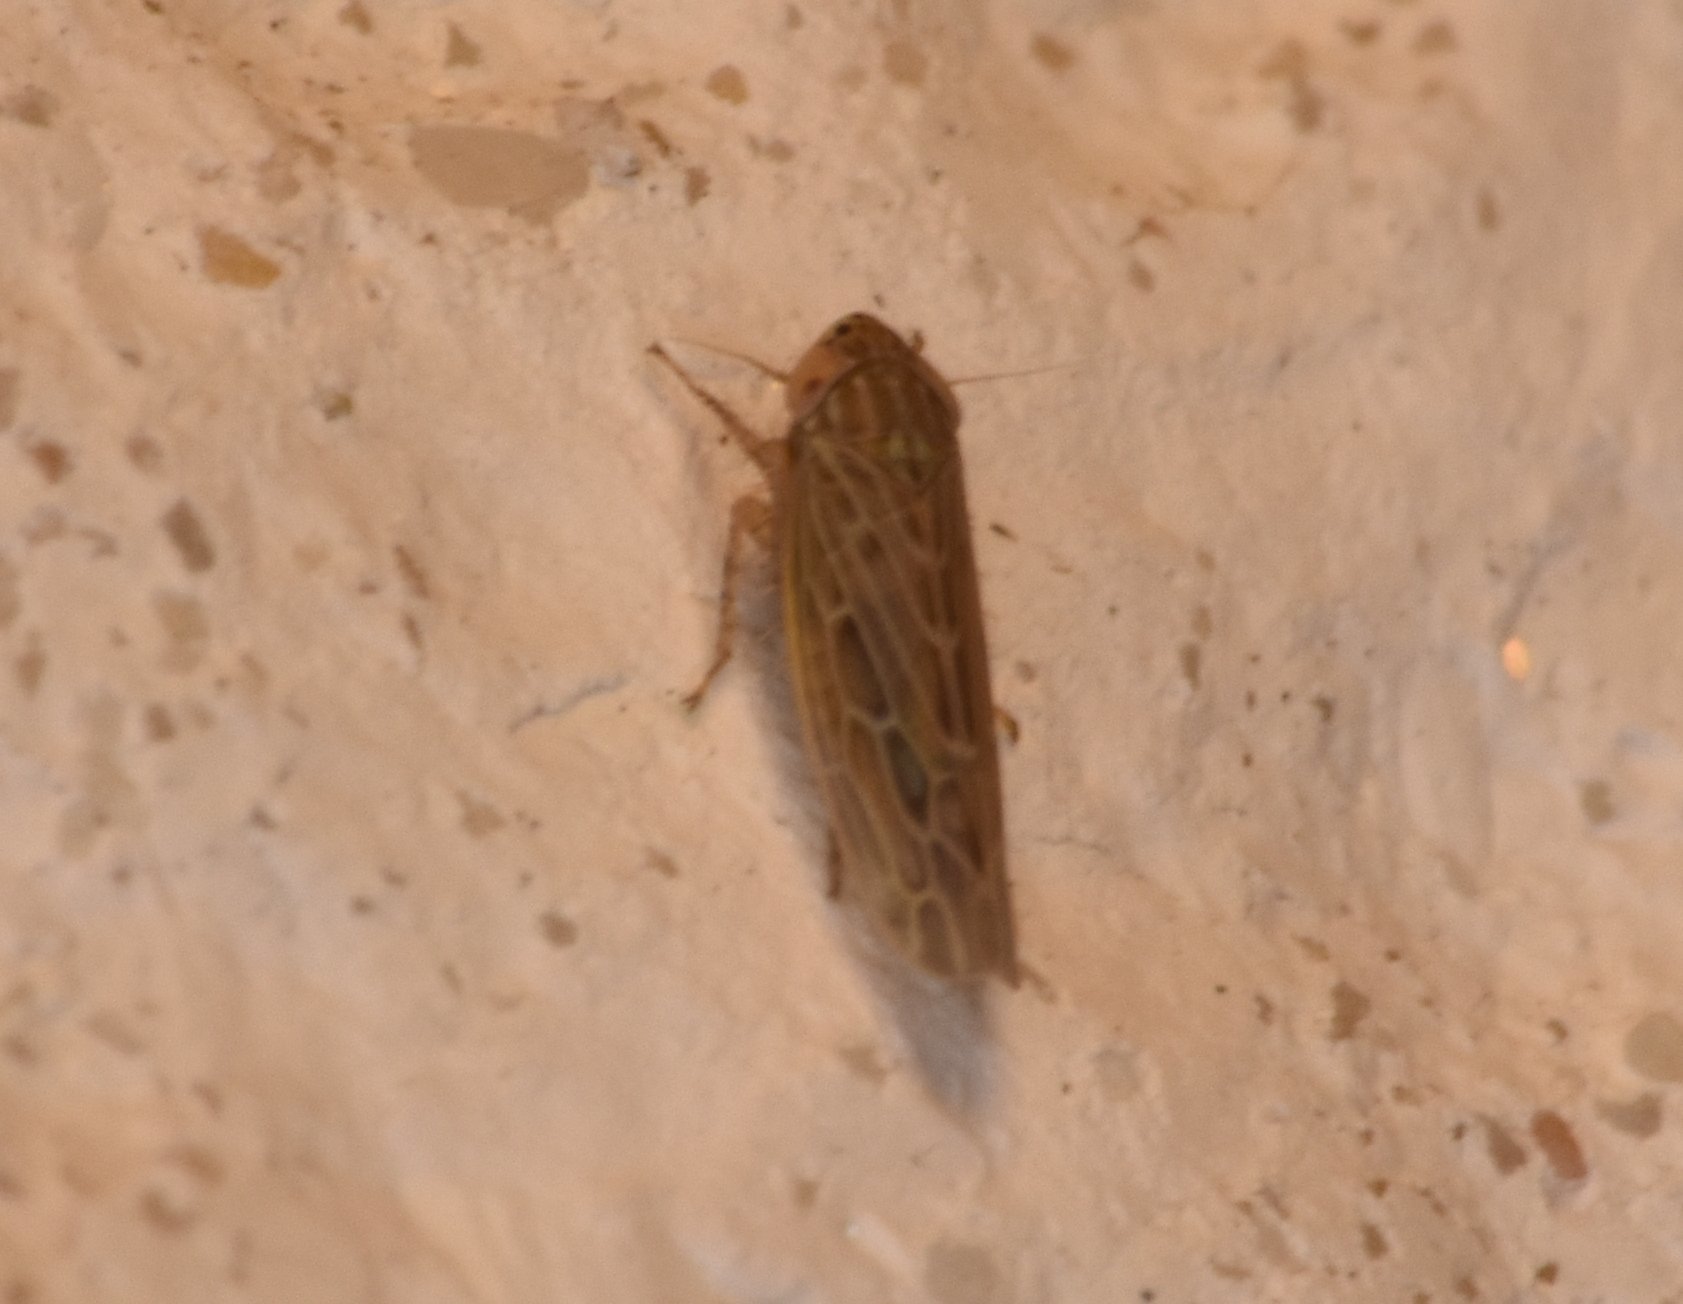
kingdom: Animalia
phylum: Arthropoda
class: Insecta
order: Hemiptera
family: Cicadellidae
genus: Graminella
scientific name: Graminella sonora
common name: Lesser lawn leafhopper
